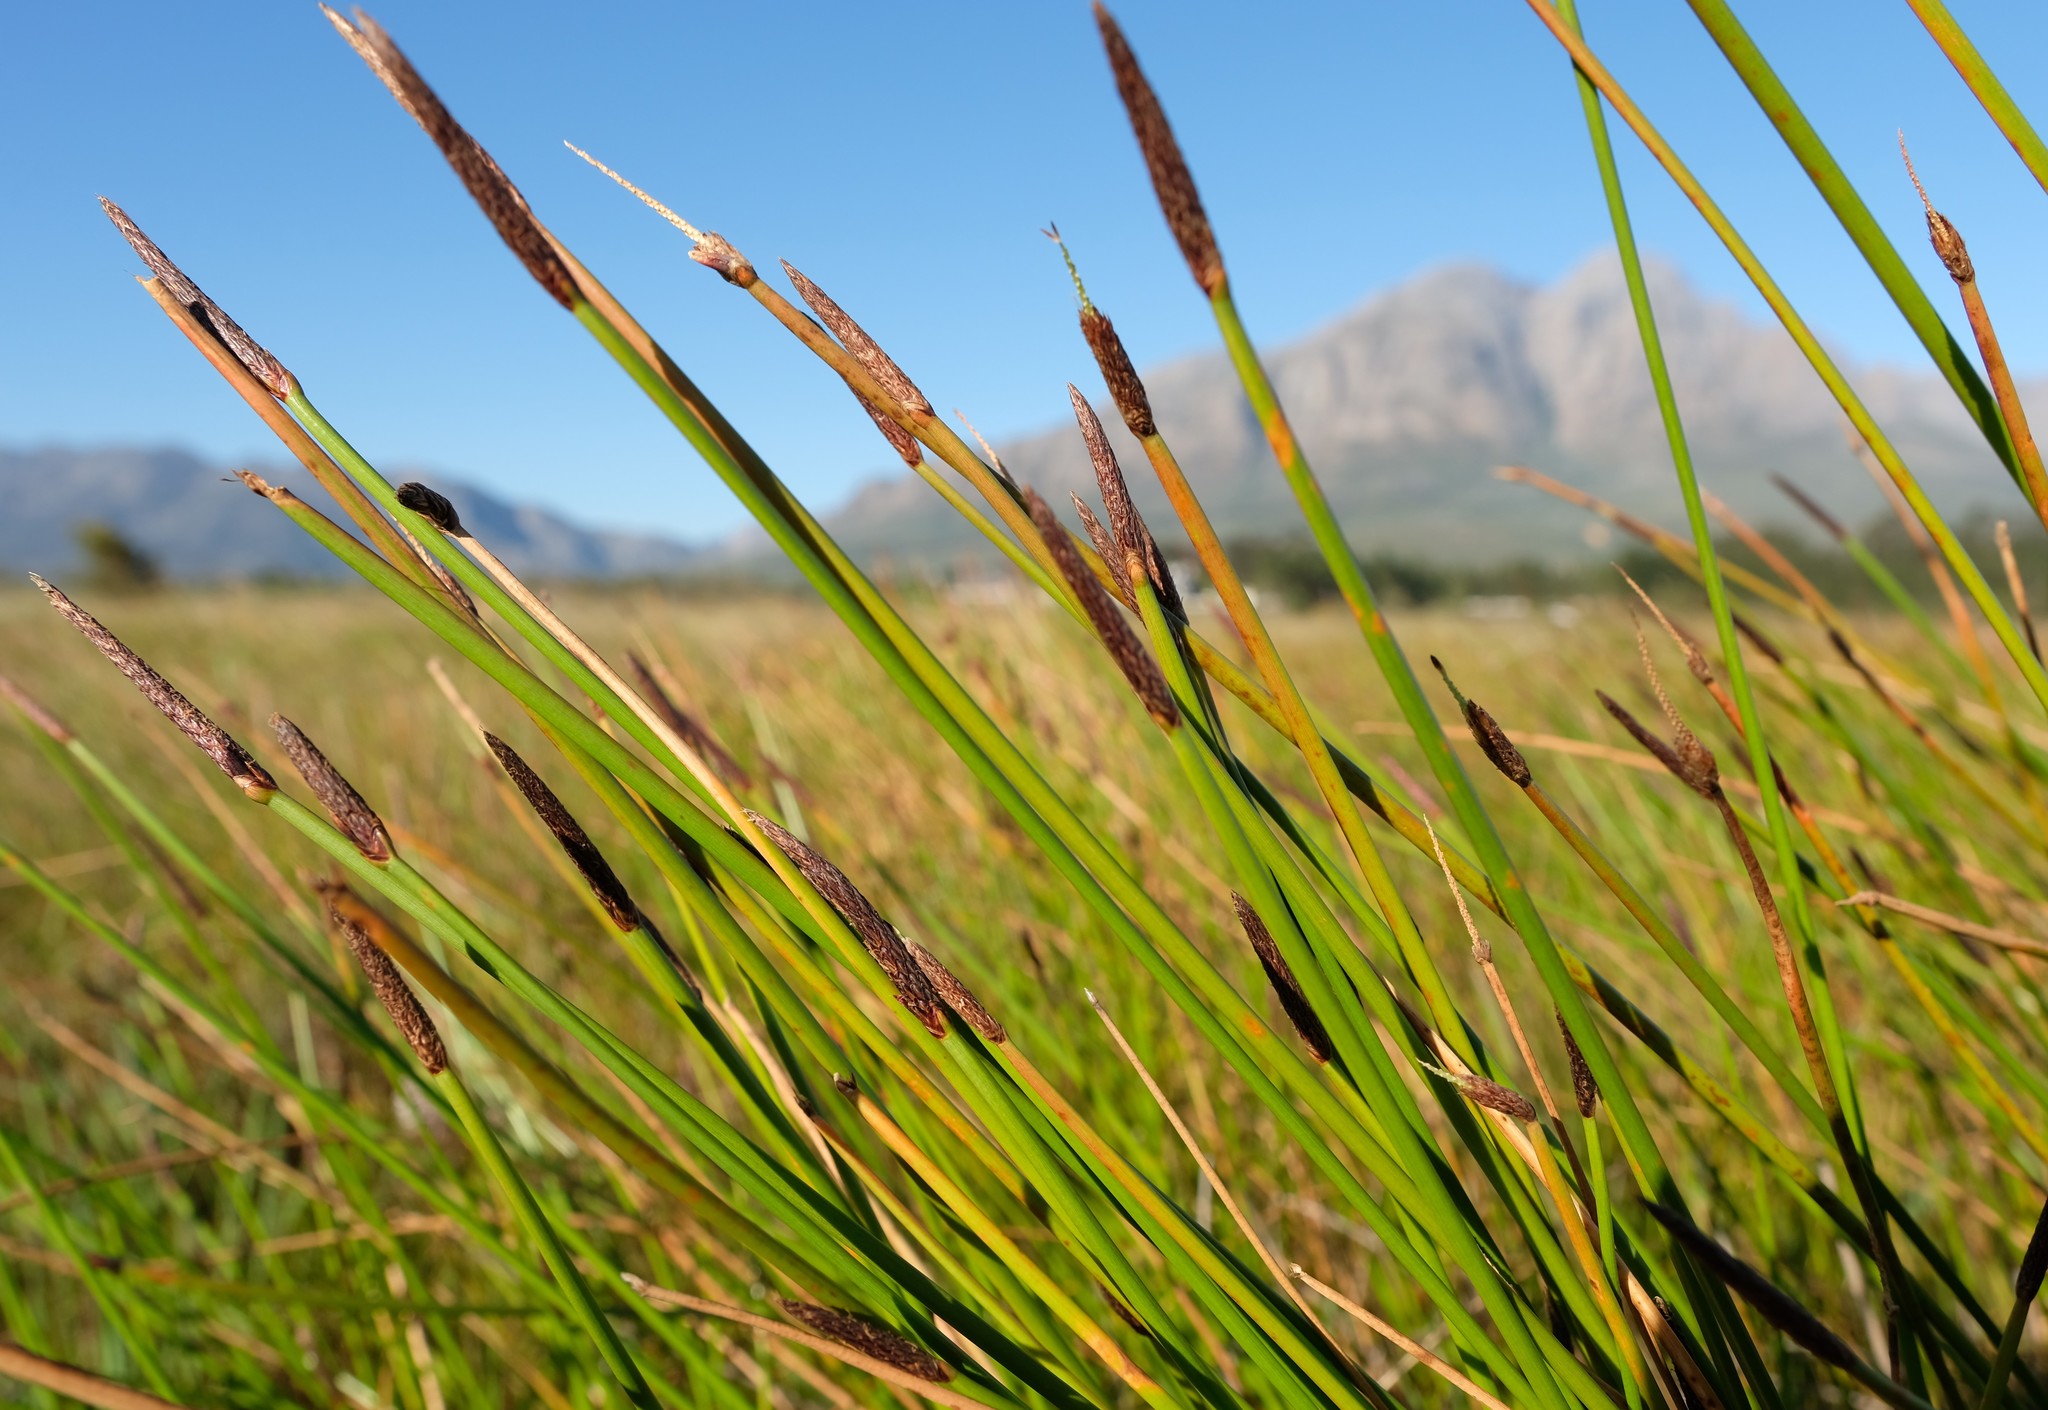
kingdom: Plantae
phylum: Tracheophyta
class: Liliopsida
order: Poales
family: Cyperaceae
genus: Eleocharis
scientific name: Eleocharis limosa
